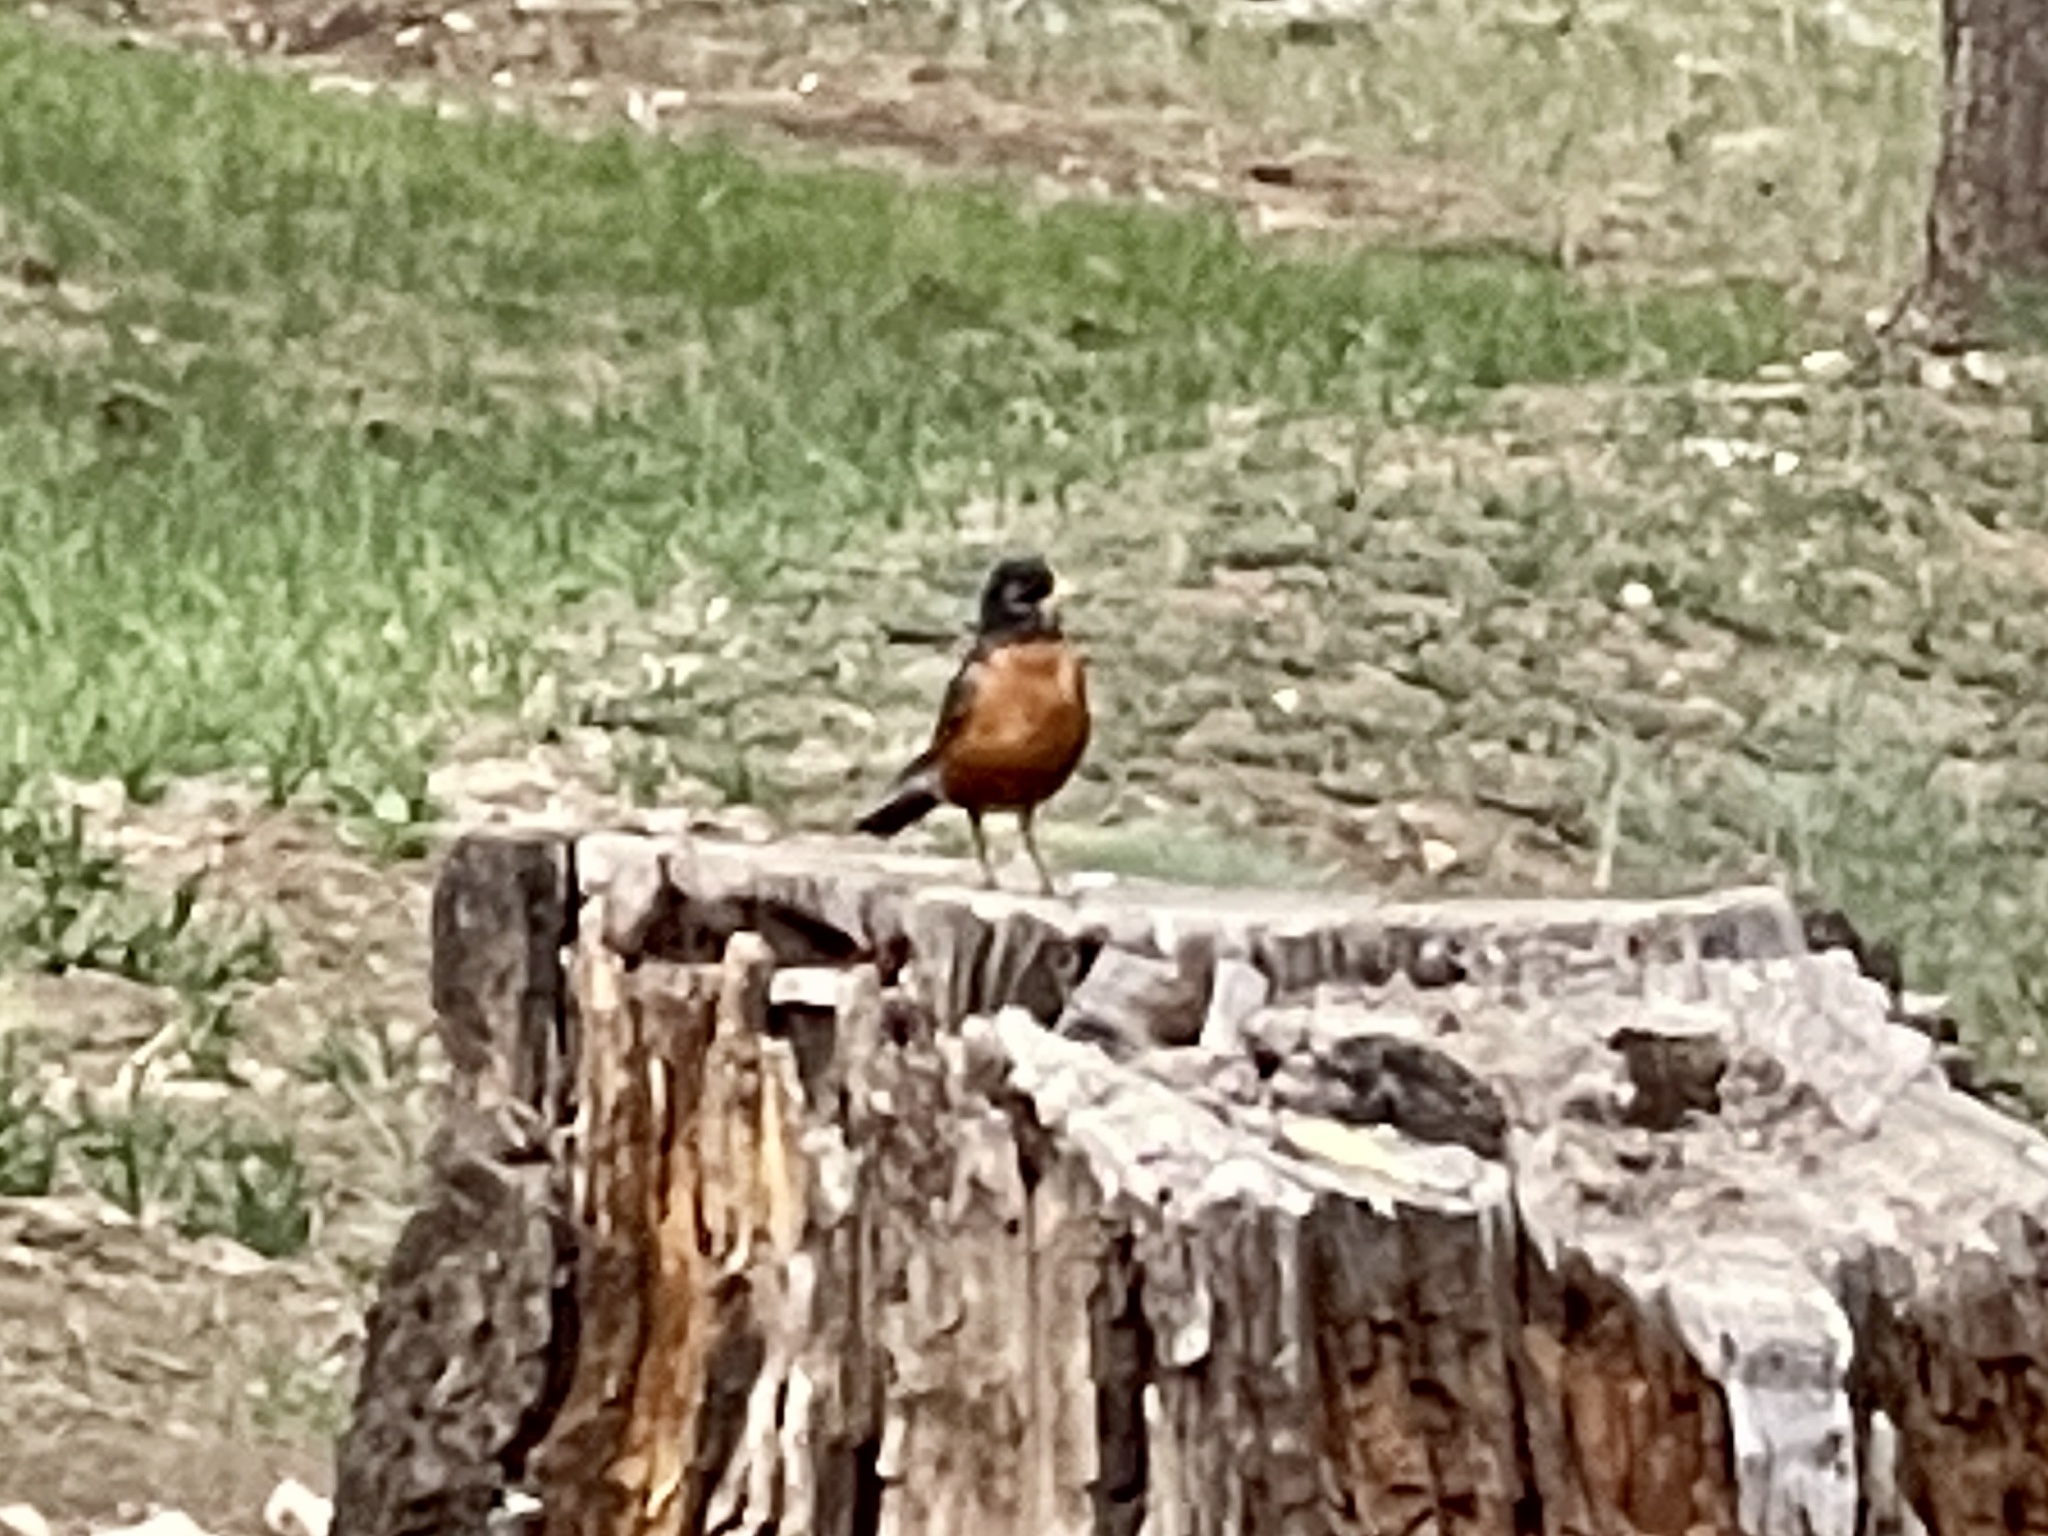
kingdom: Animalia
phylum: Chordata
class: Aves
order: Passeriformes
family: Turdidae
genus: Turdus
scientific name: Turdus migratorius
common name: American robin
